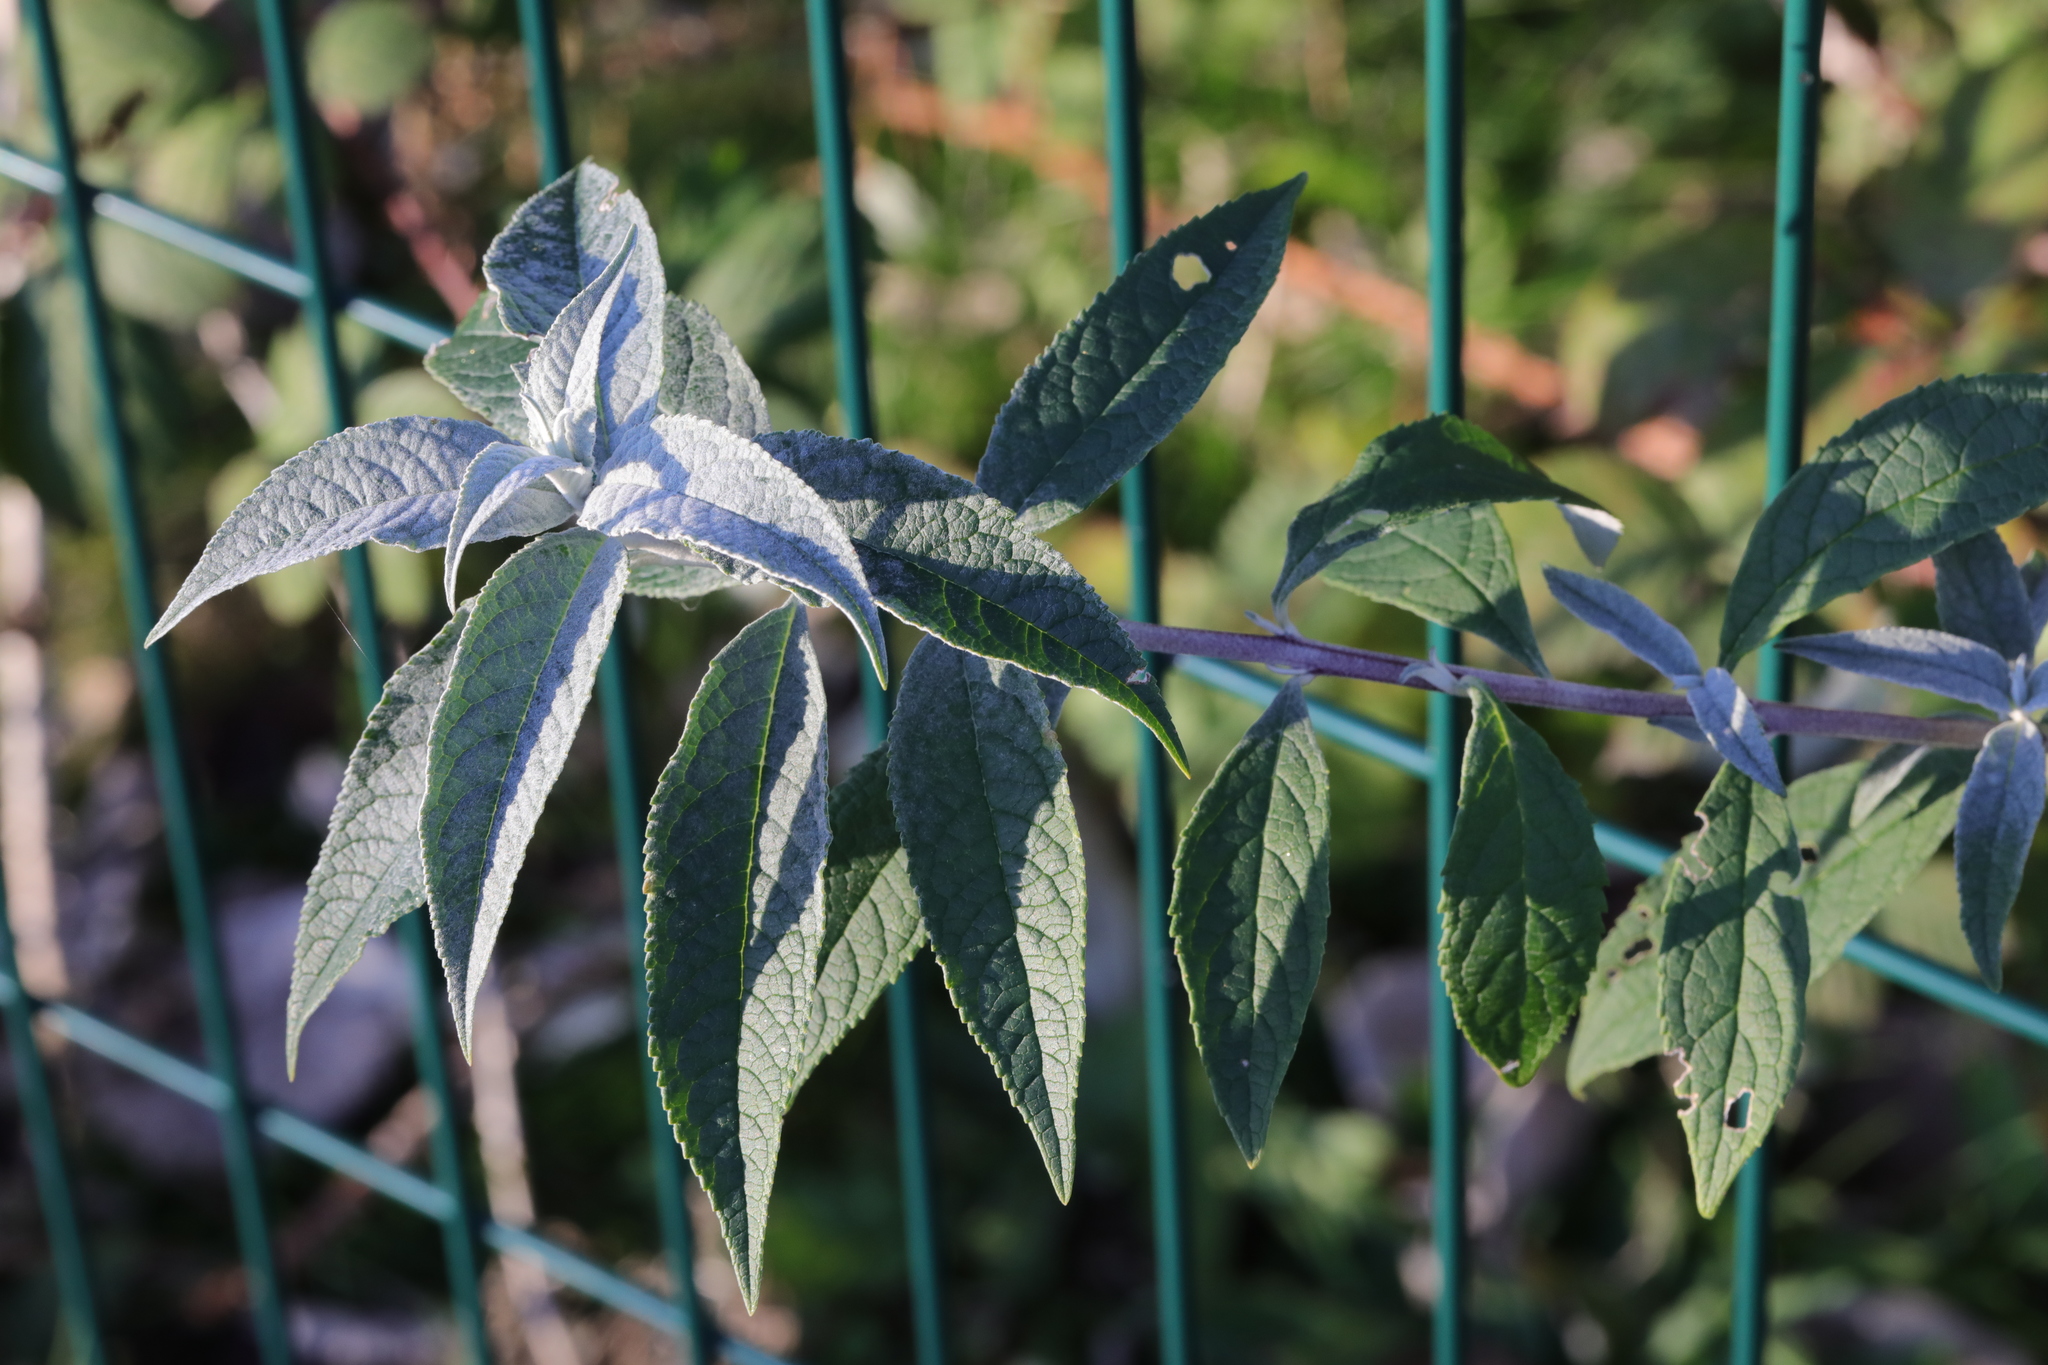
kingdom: Plantae
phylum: Tracheophyta
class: Magnoliopsida
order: Lamiales
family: Scrophulariaceae
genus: Buddleja
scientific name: Buddleja davidii
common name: Butterfly-bush
